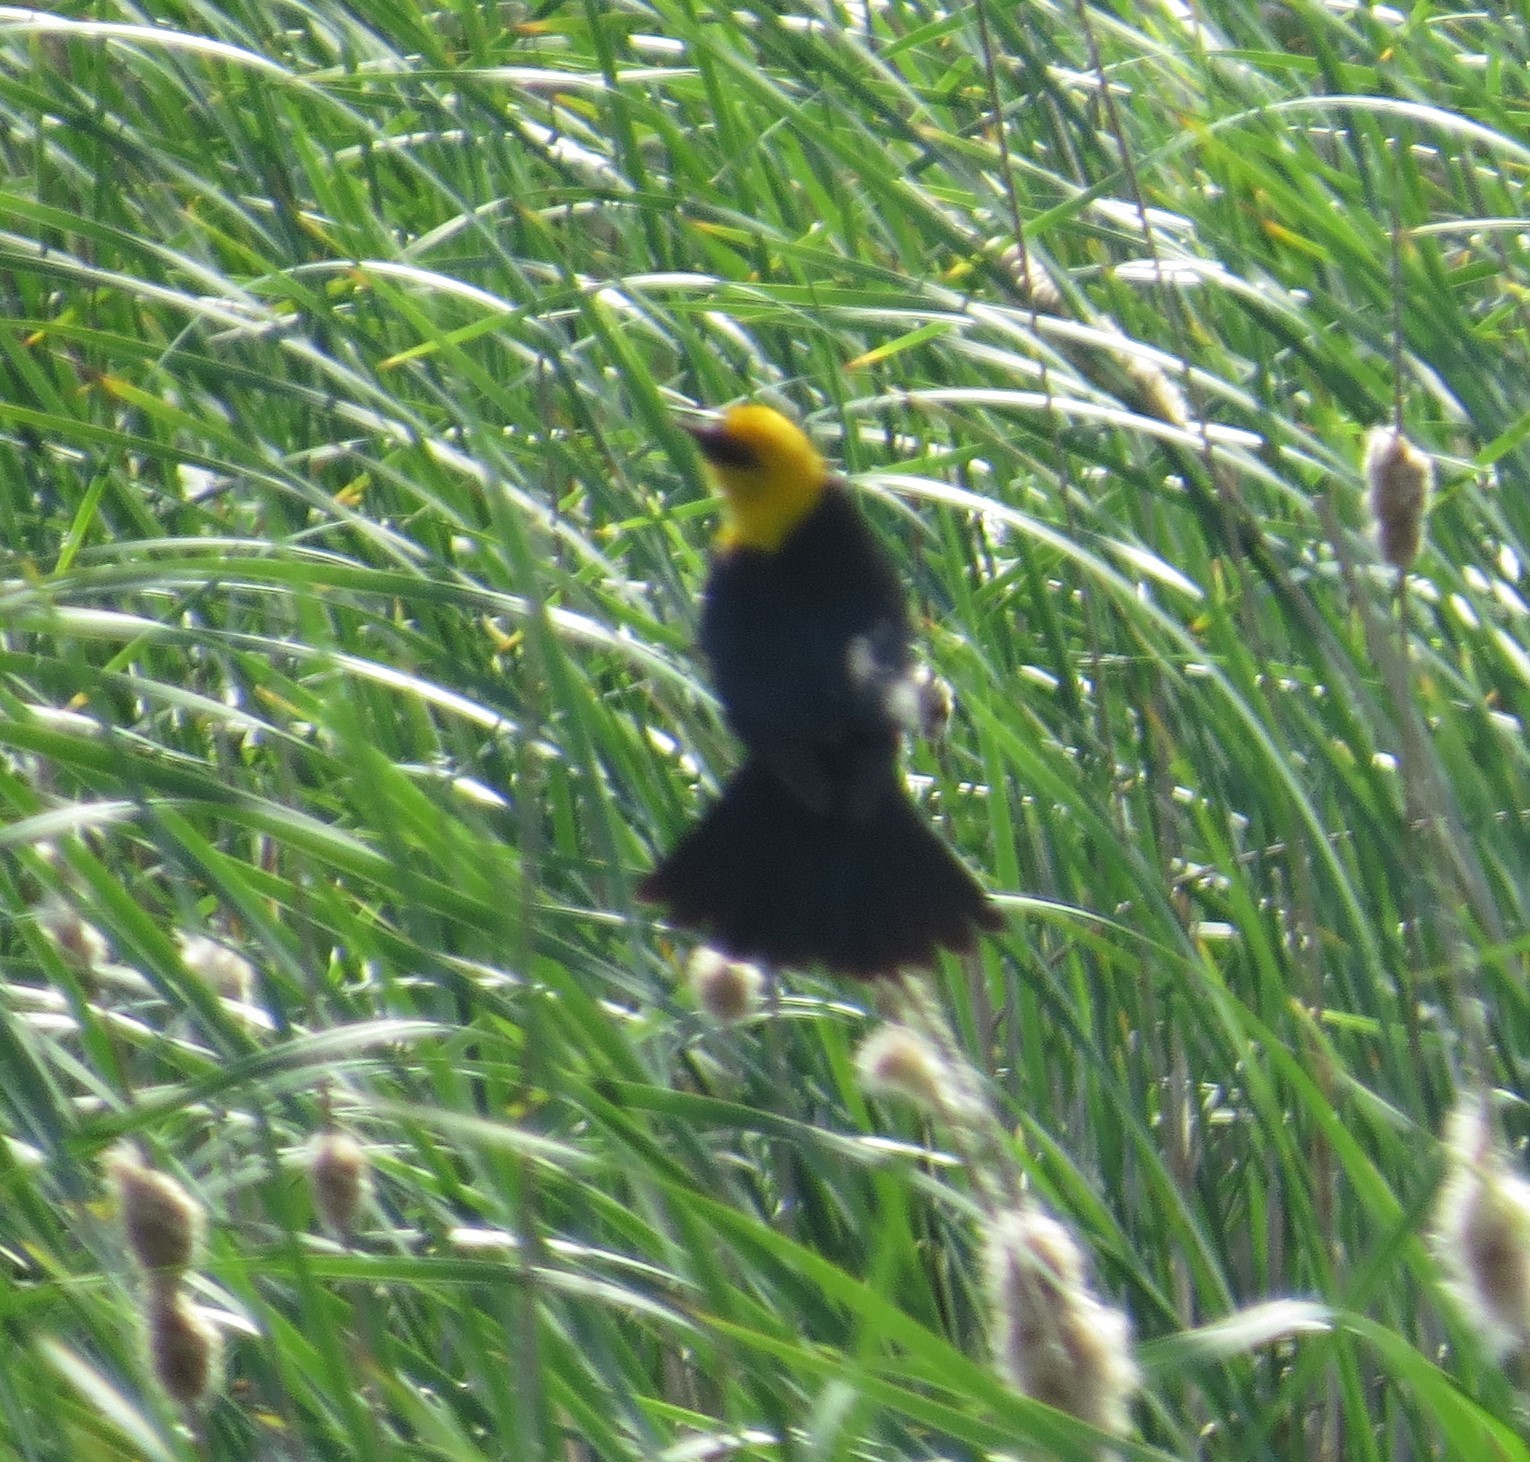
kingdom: Animalia
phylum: Chordata
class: Aves
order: Passeriformes
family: Icteridae
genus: Xanthocephalus
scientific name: Xanthocephalus xanthocephalus
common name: Yellow-headed blackbird
